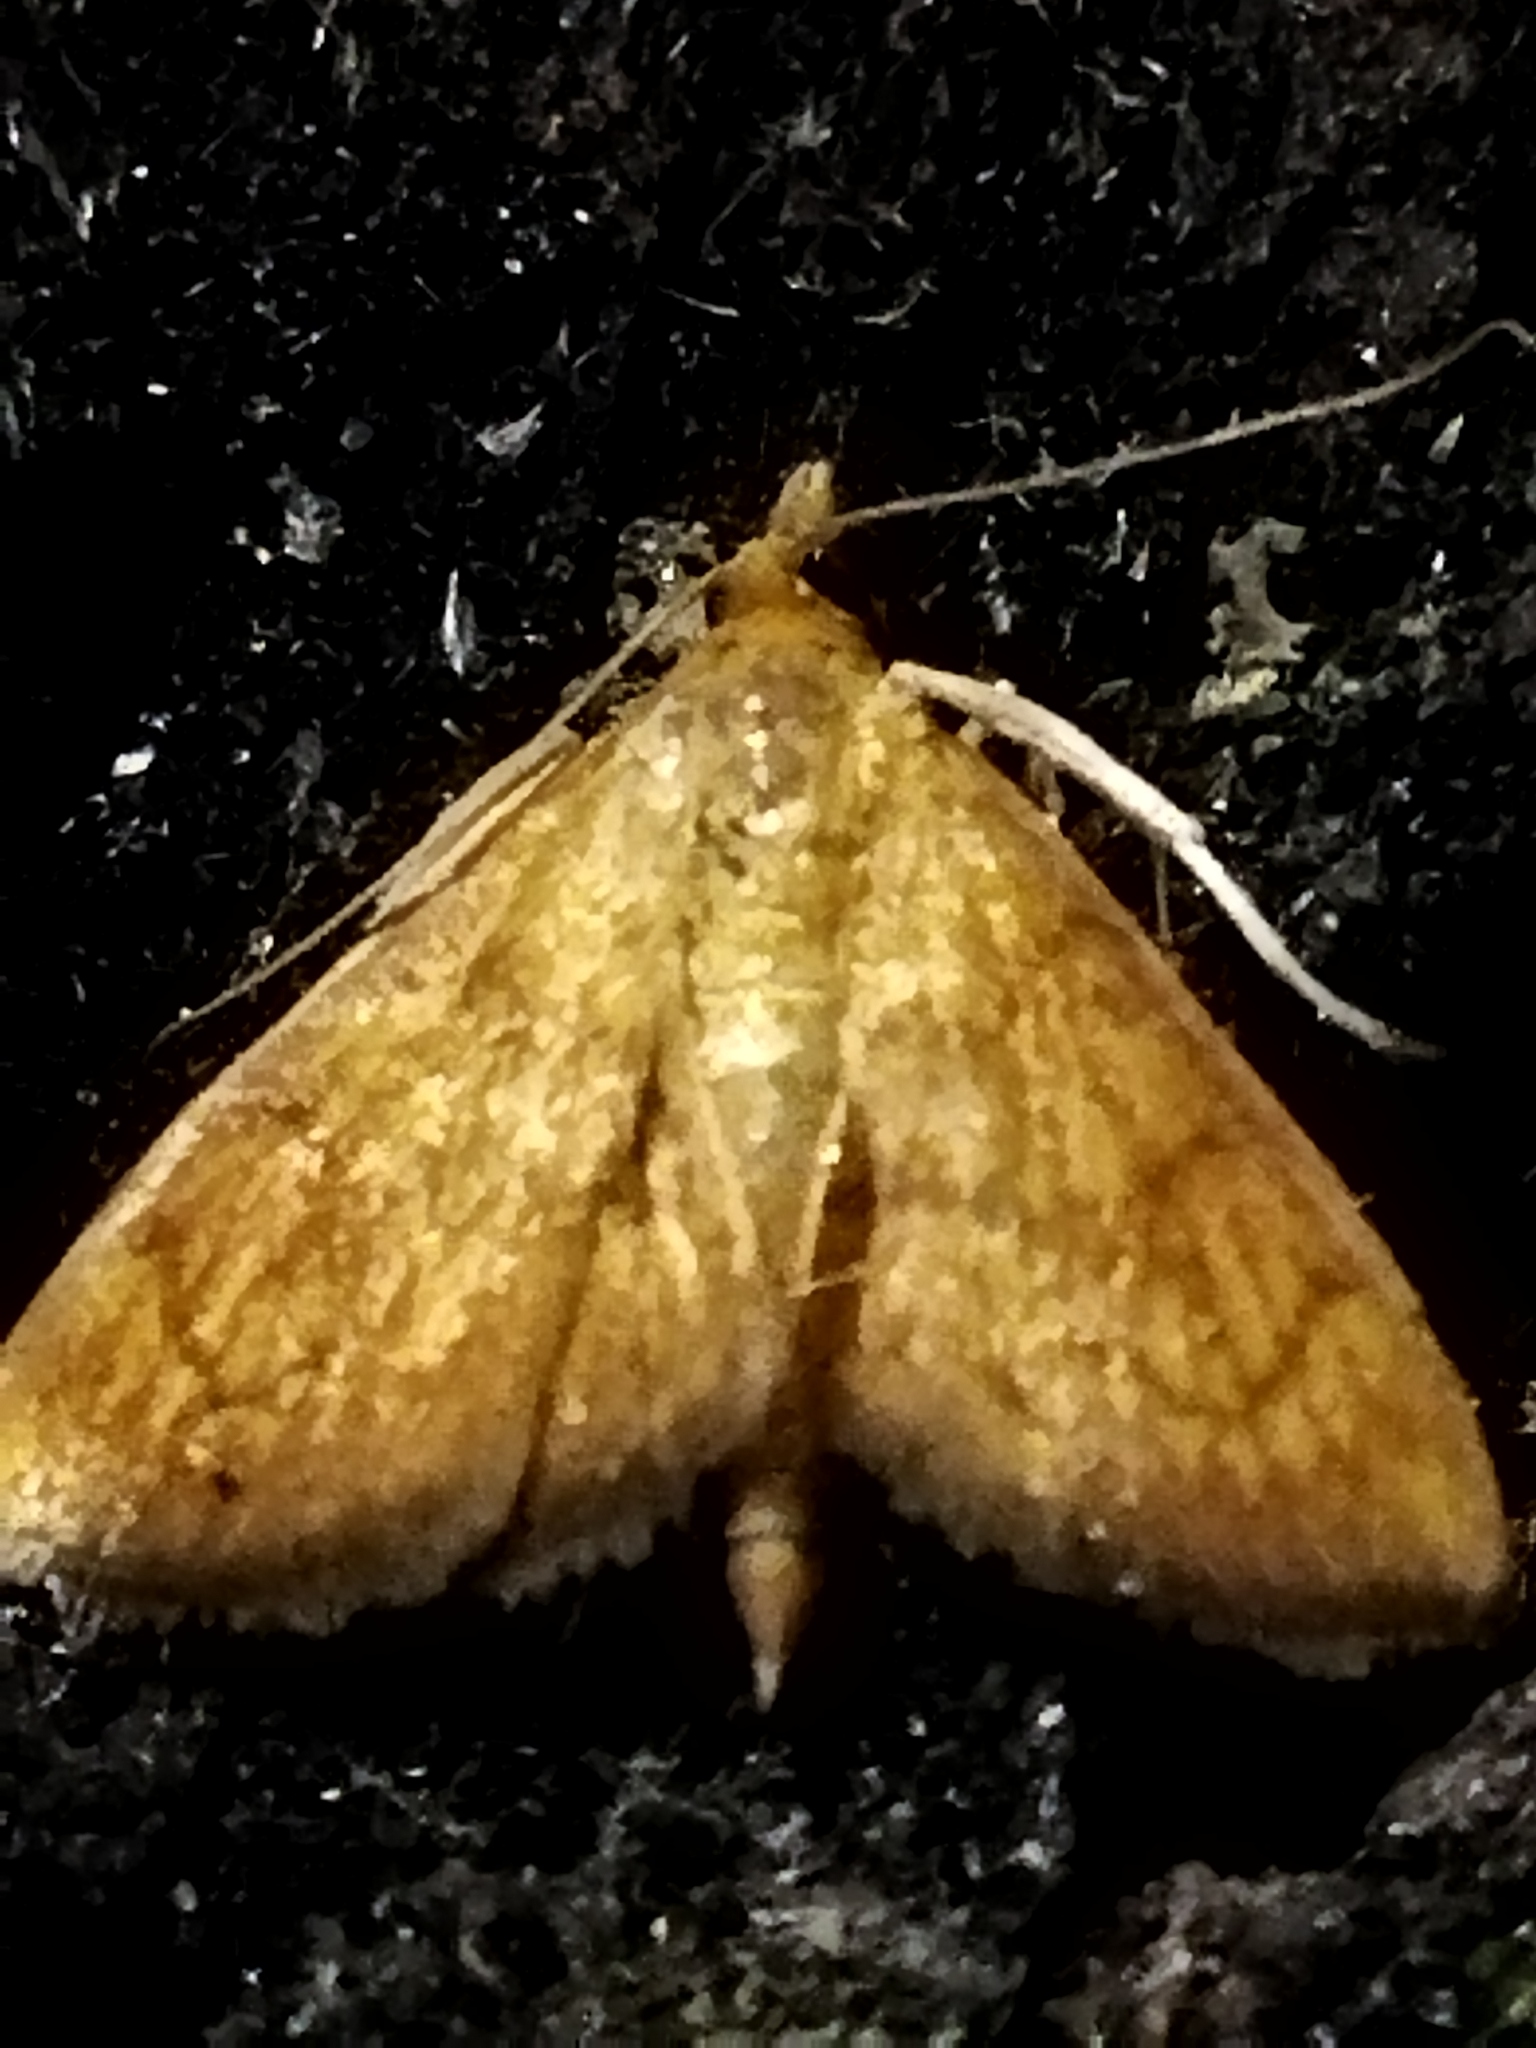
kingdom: Animalia
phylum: Arthropoda
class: Insecta
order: Lepidoptera
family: Crambidae
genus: Ecpyrrhorrhoe
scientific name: Ecpyrrhorrhoe rubiginalis
